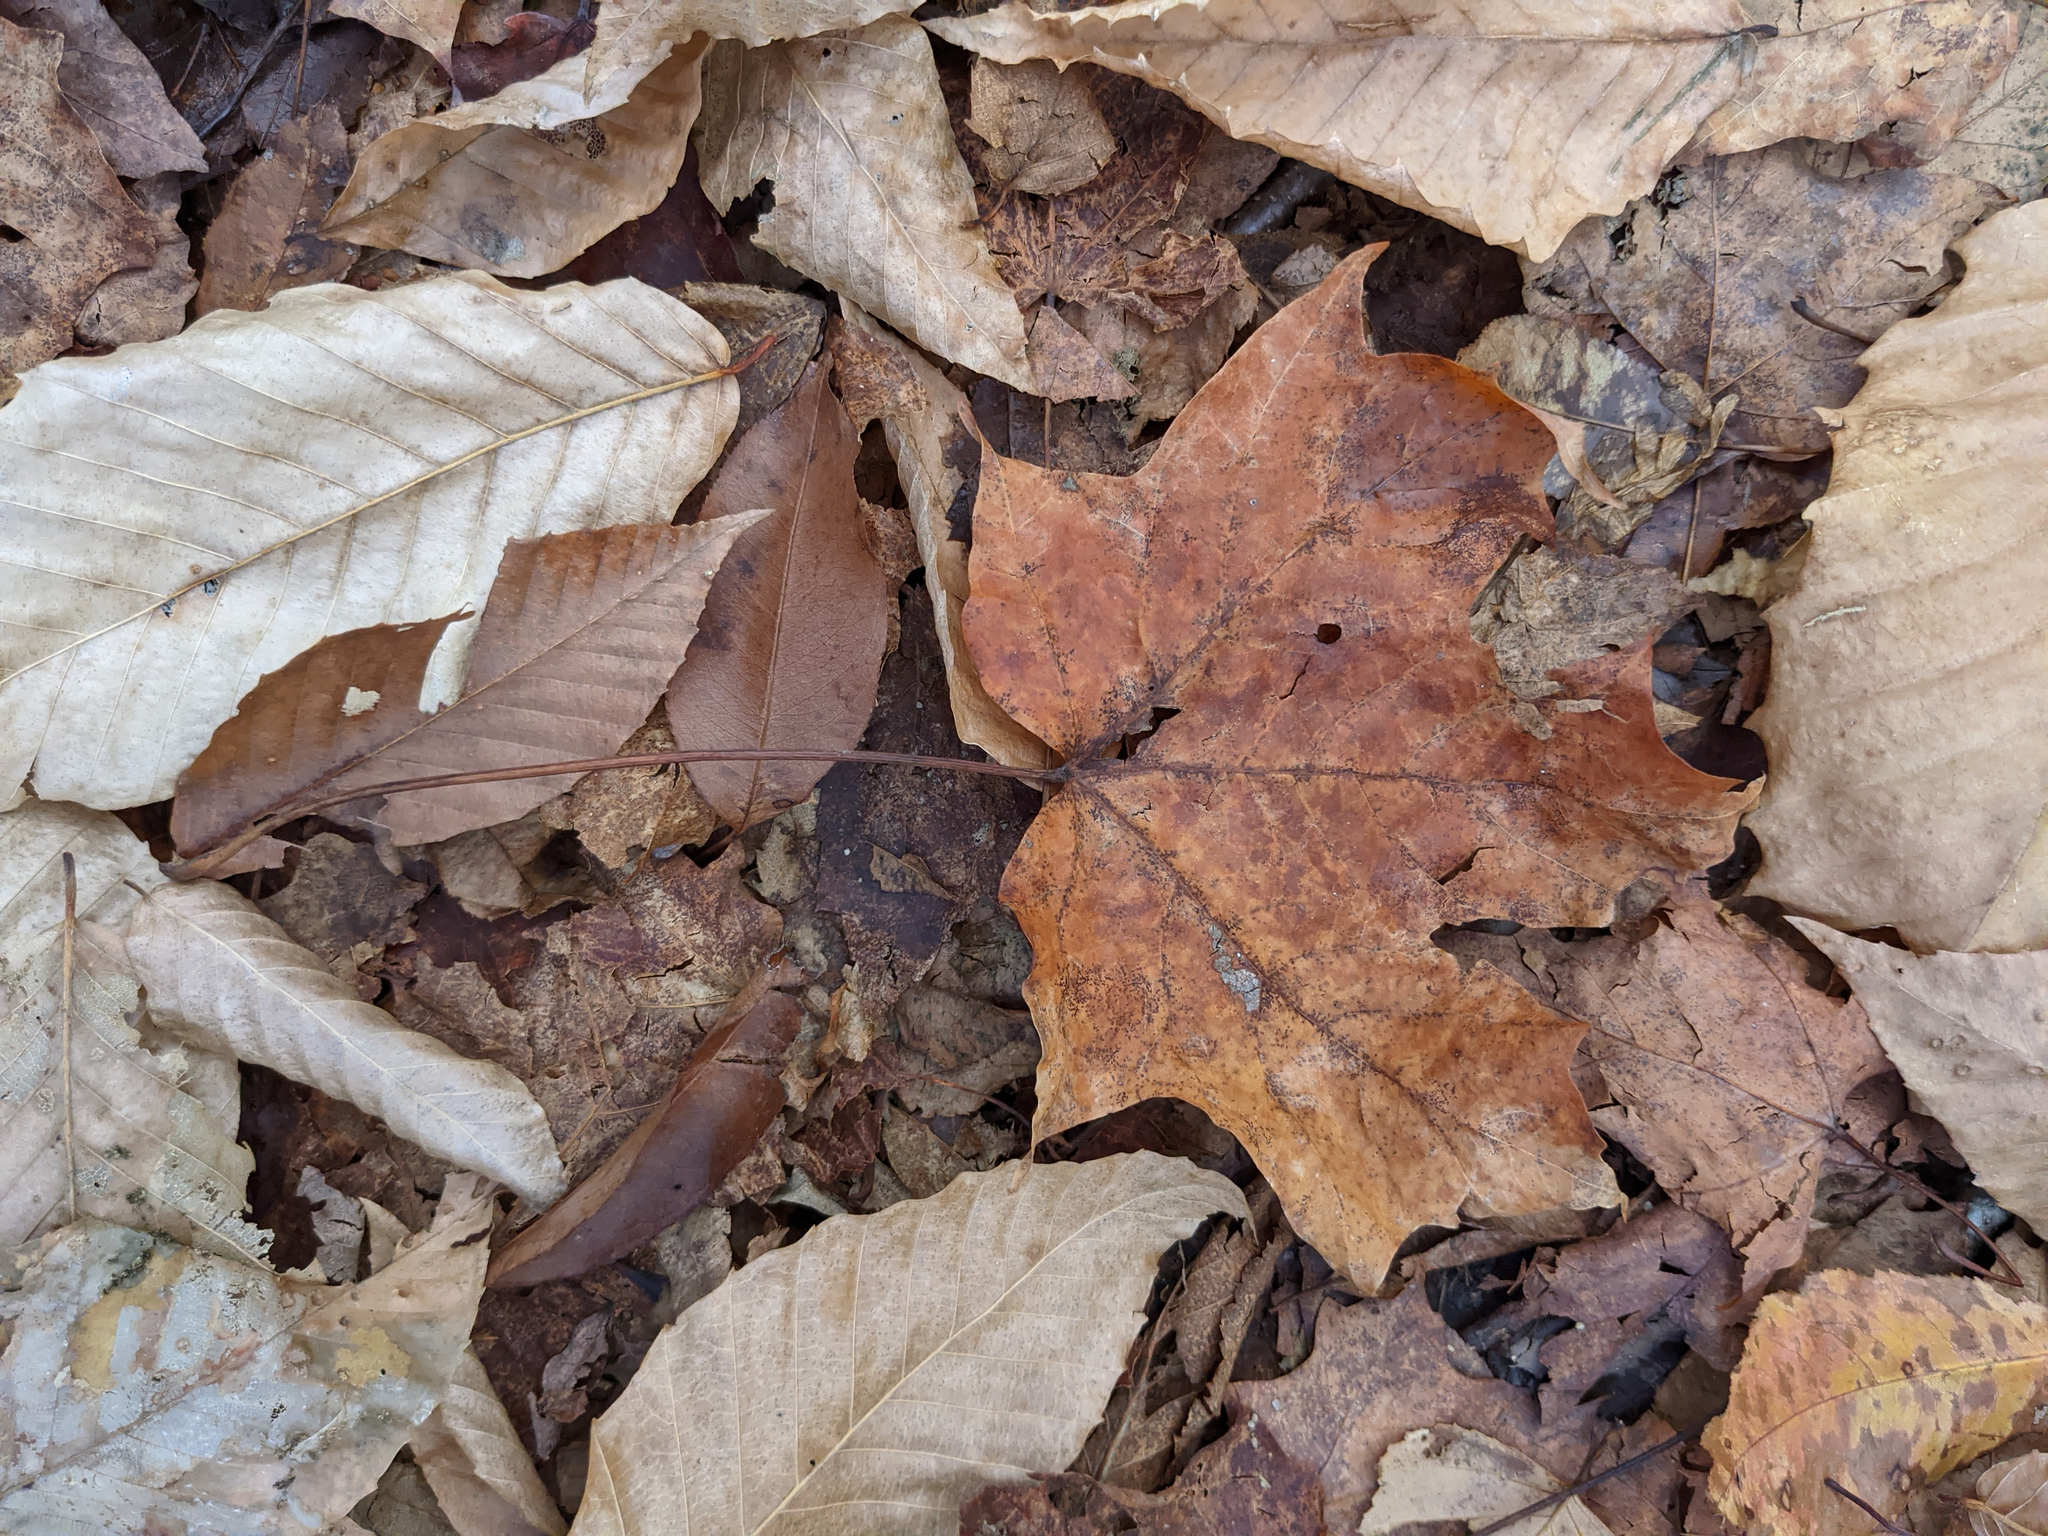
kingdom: Plantae
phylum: Tracheophyta
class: Magnoliopsida
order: Fagales
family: Fagaceae
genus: Fagus
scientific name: Fagus grandifolia
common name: American beech
